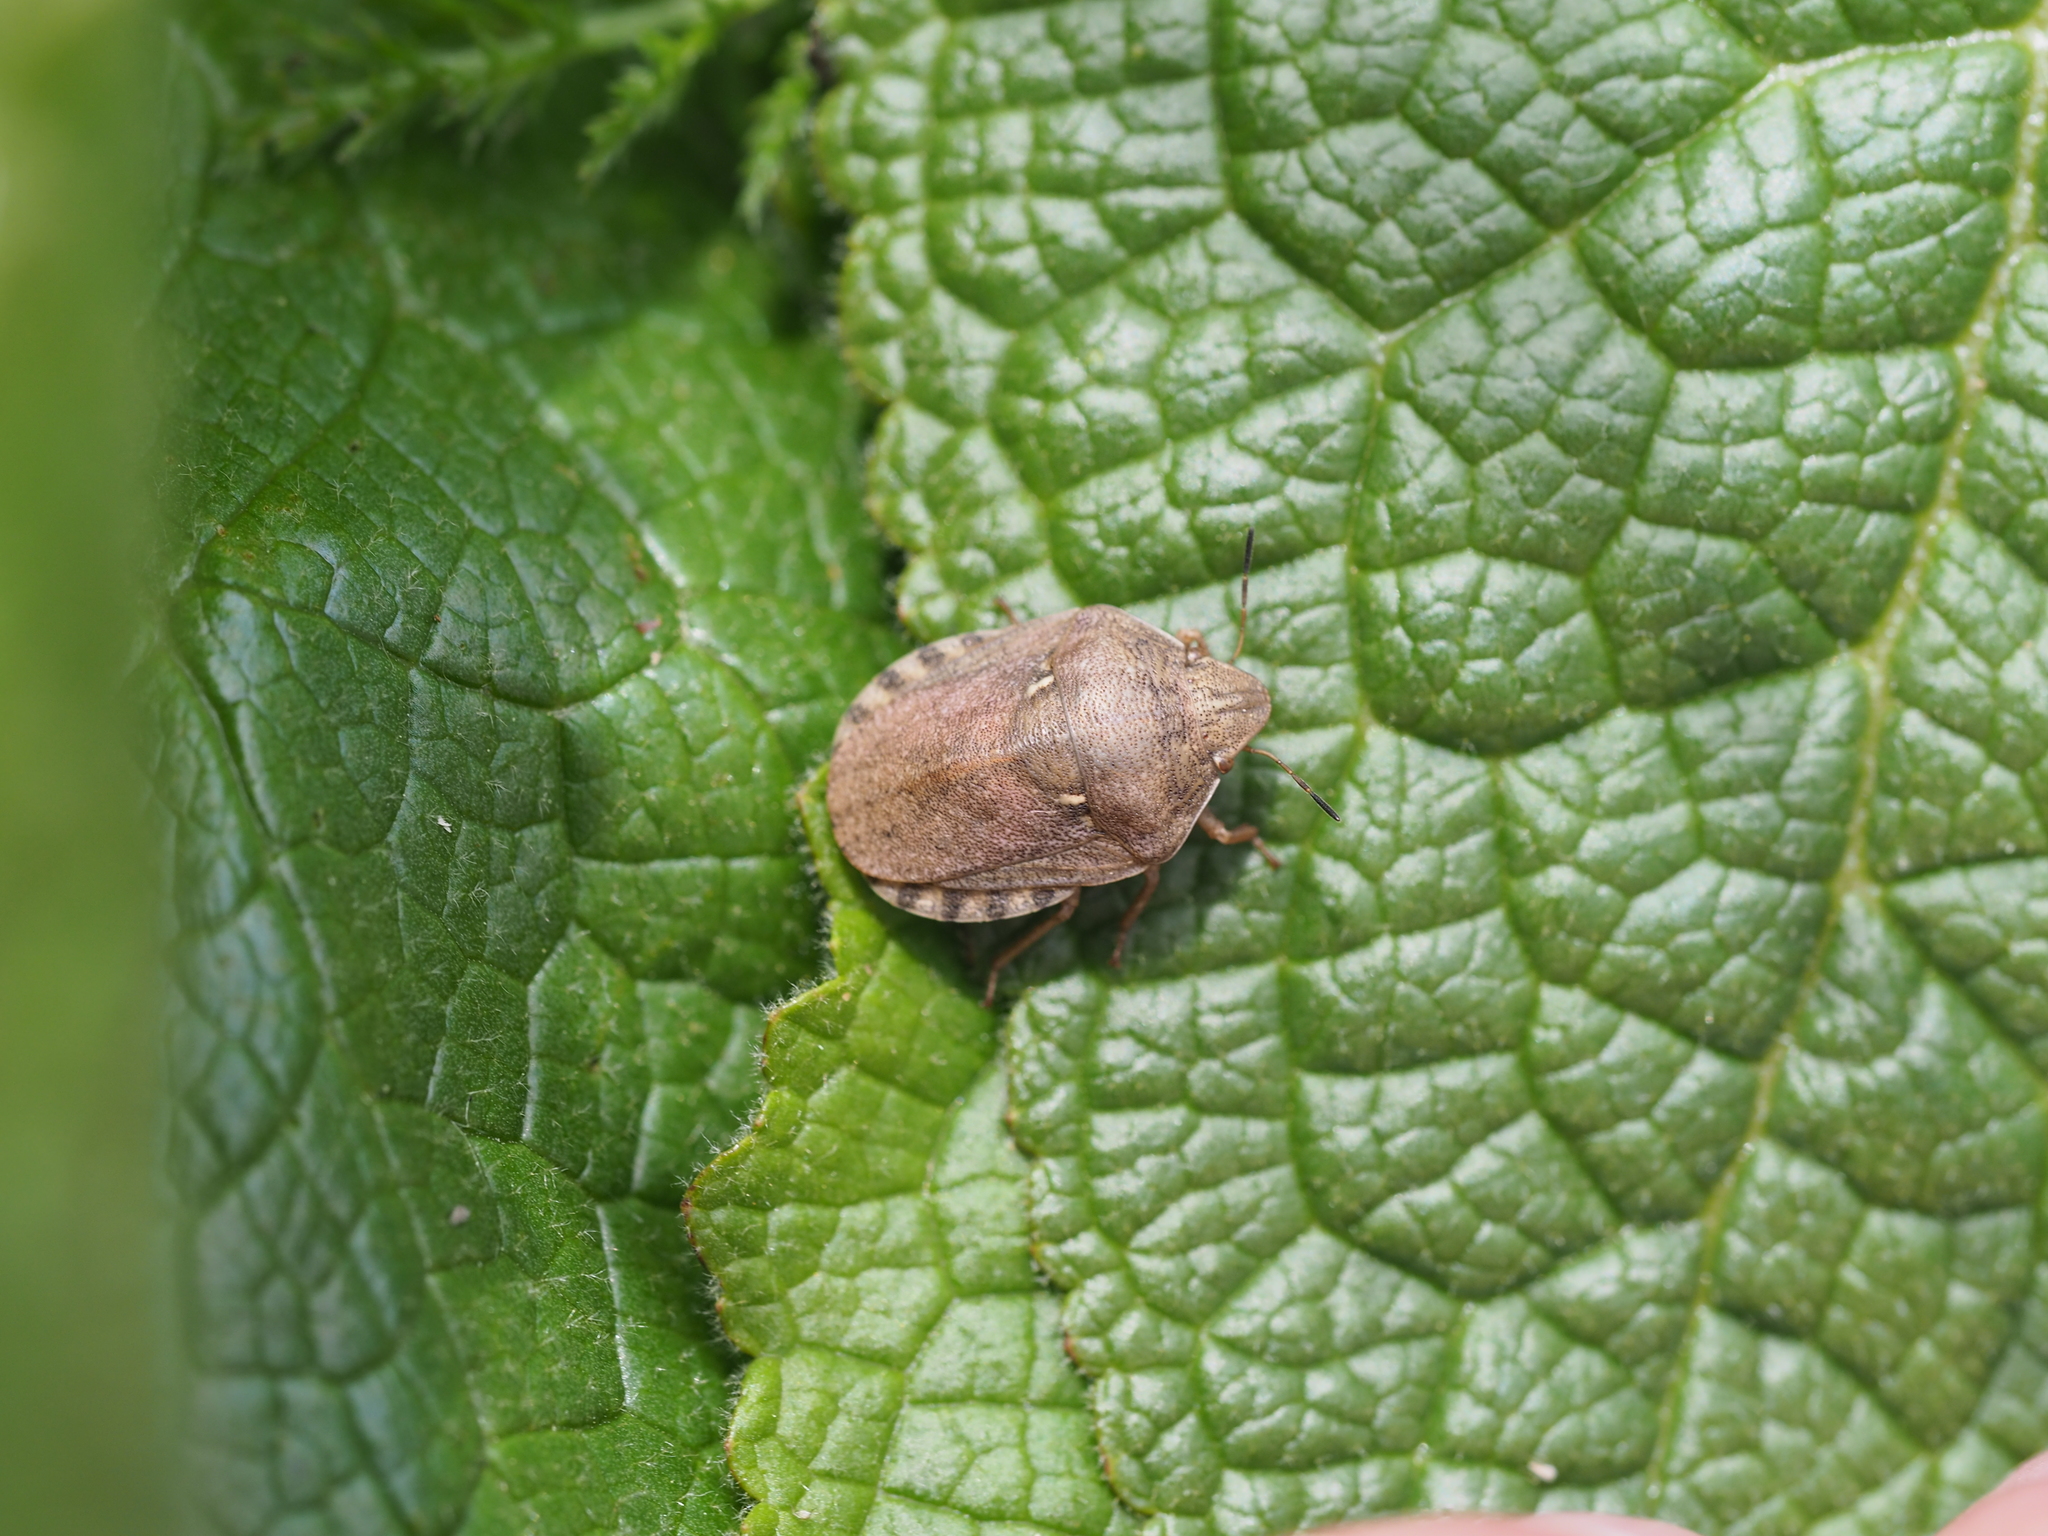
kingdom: Animalia
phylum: Arthropoda
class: Insecta
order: Hemiptera
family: Scutelleridae
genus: Eurygaster
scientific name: Eurygaster maura
